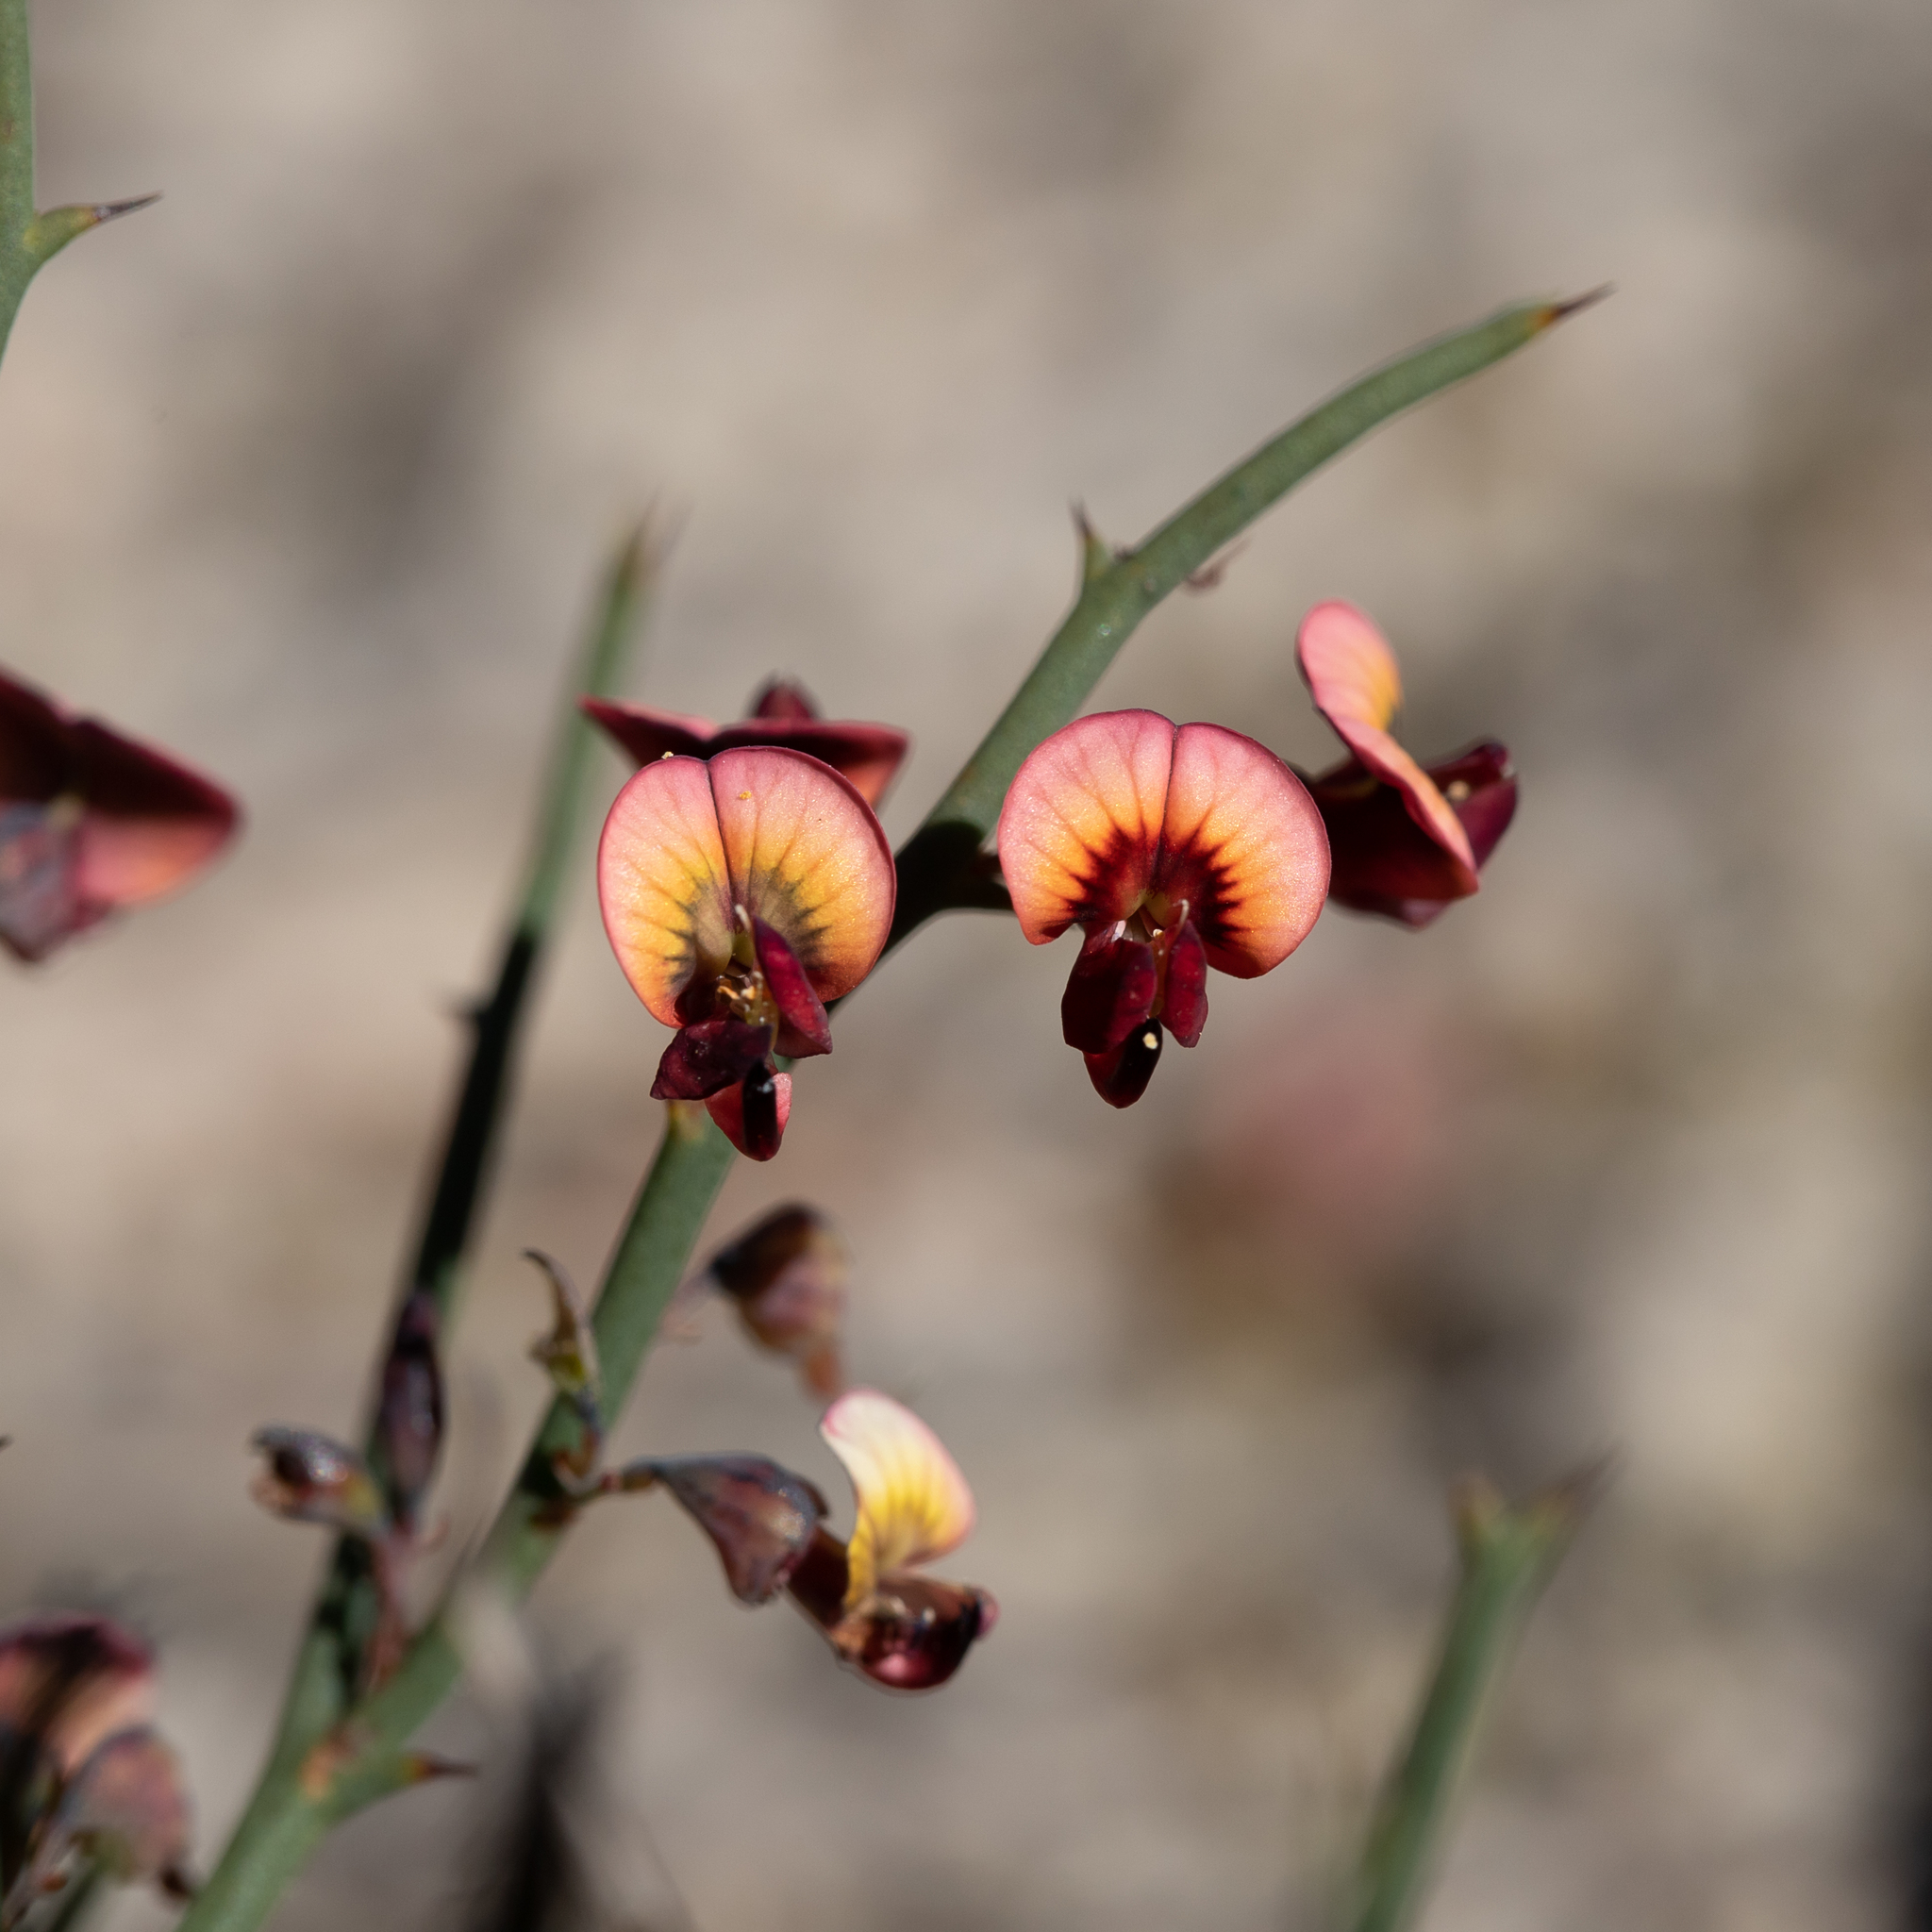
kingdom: Plantae
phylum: Tracheophyta
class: Magnoliopsida
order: Fabales
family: Fabaceae
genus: Daviesia
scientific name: Daviesia brevifolia
